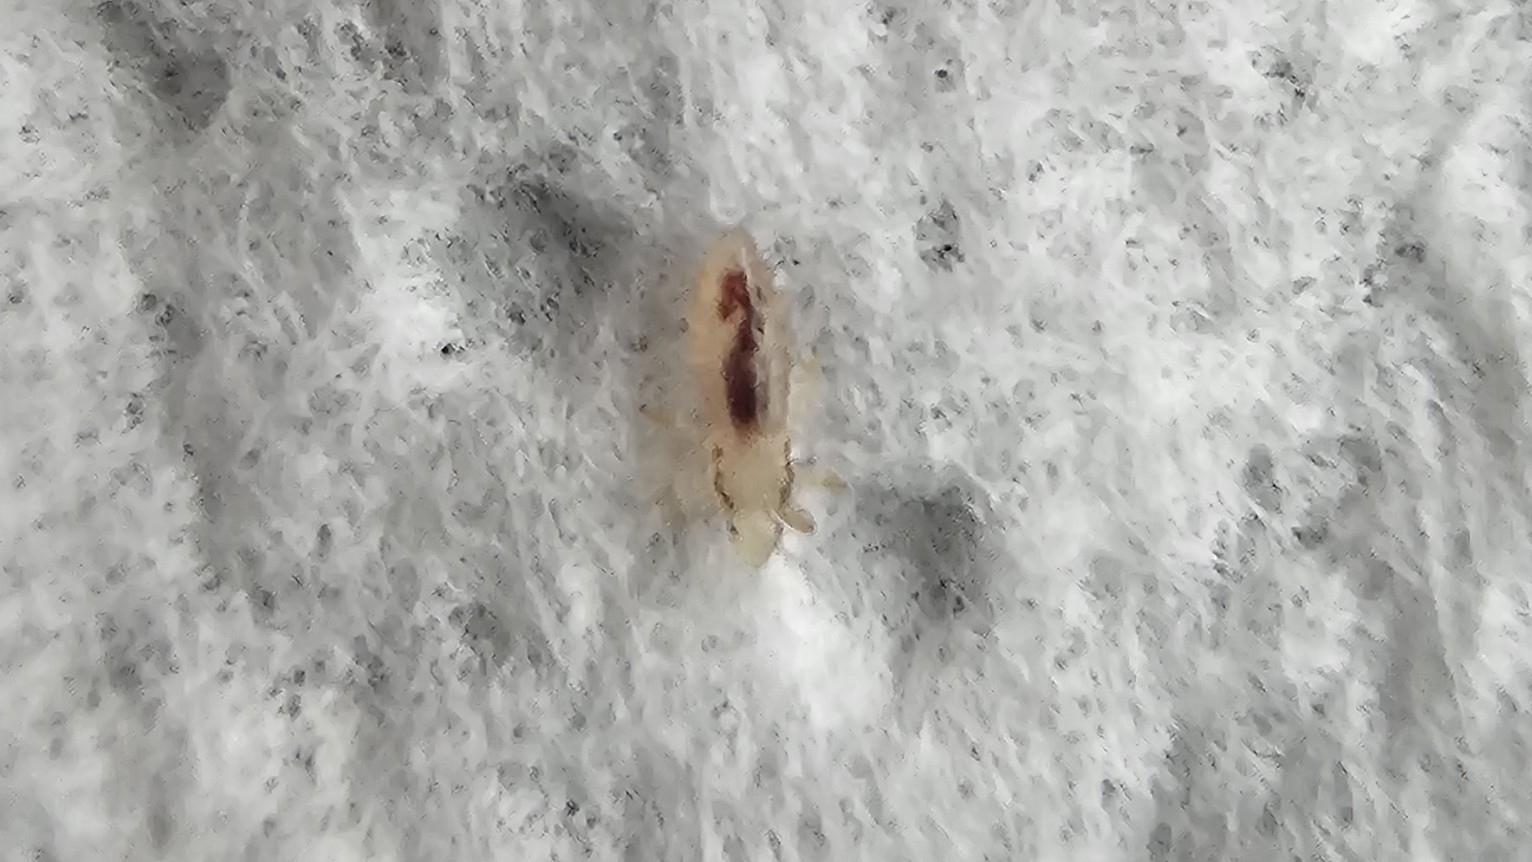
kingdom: Animalia
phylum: Arthropoda
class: Insecta
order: Psocodea
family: Pediculidae
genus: Pediculus
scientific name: Pediculus humanus
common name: Body louse
